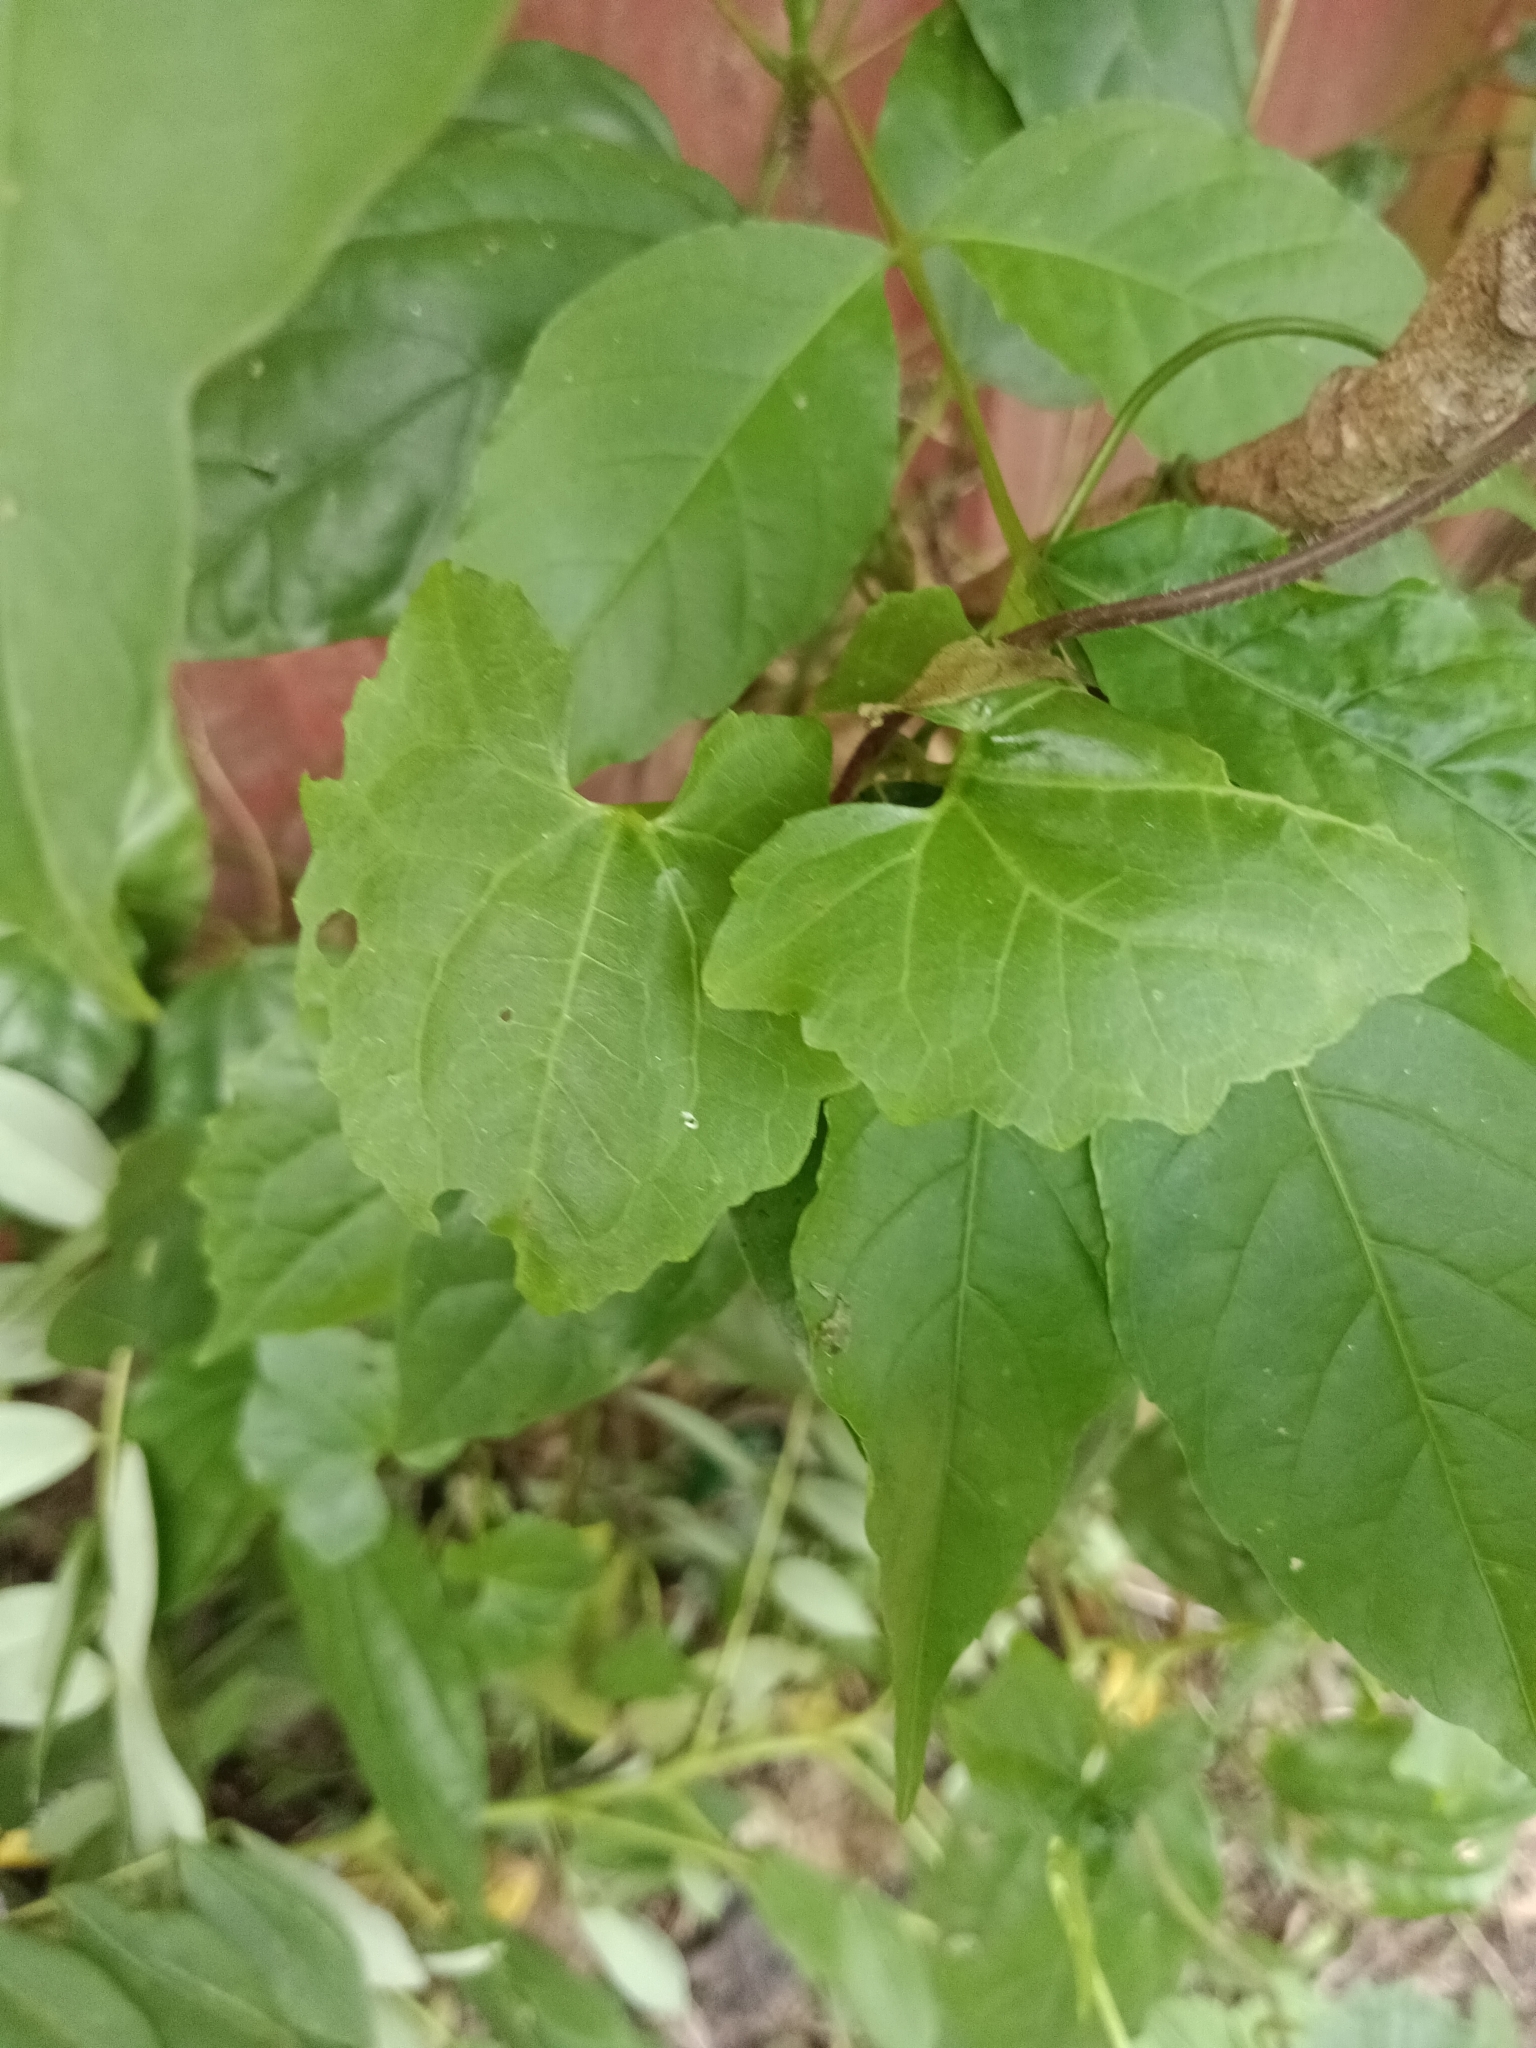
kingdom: Plantae
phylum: Tracheophyta
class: Magnoliopsida
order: Asterales
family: Asteraceae
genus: Mikania
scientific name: Mikania micrantha
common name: Mile-a-minute
